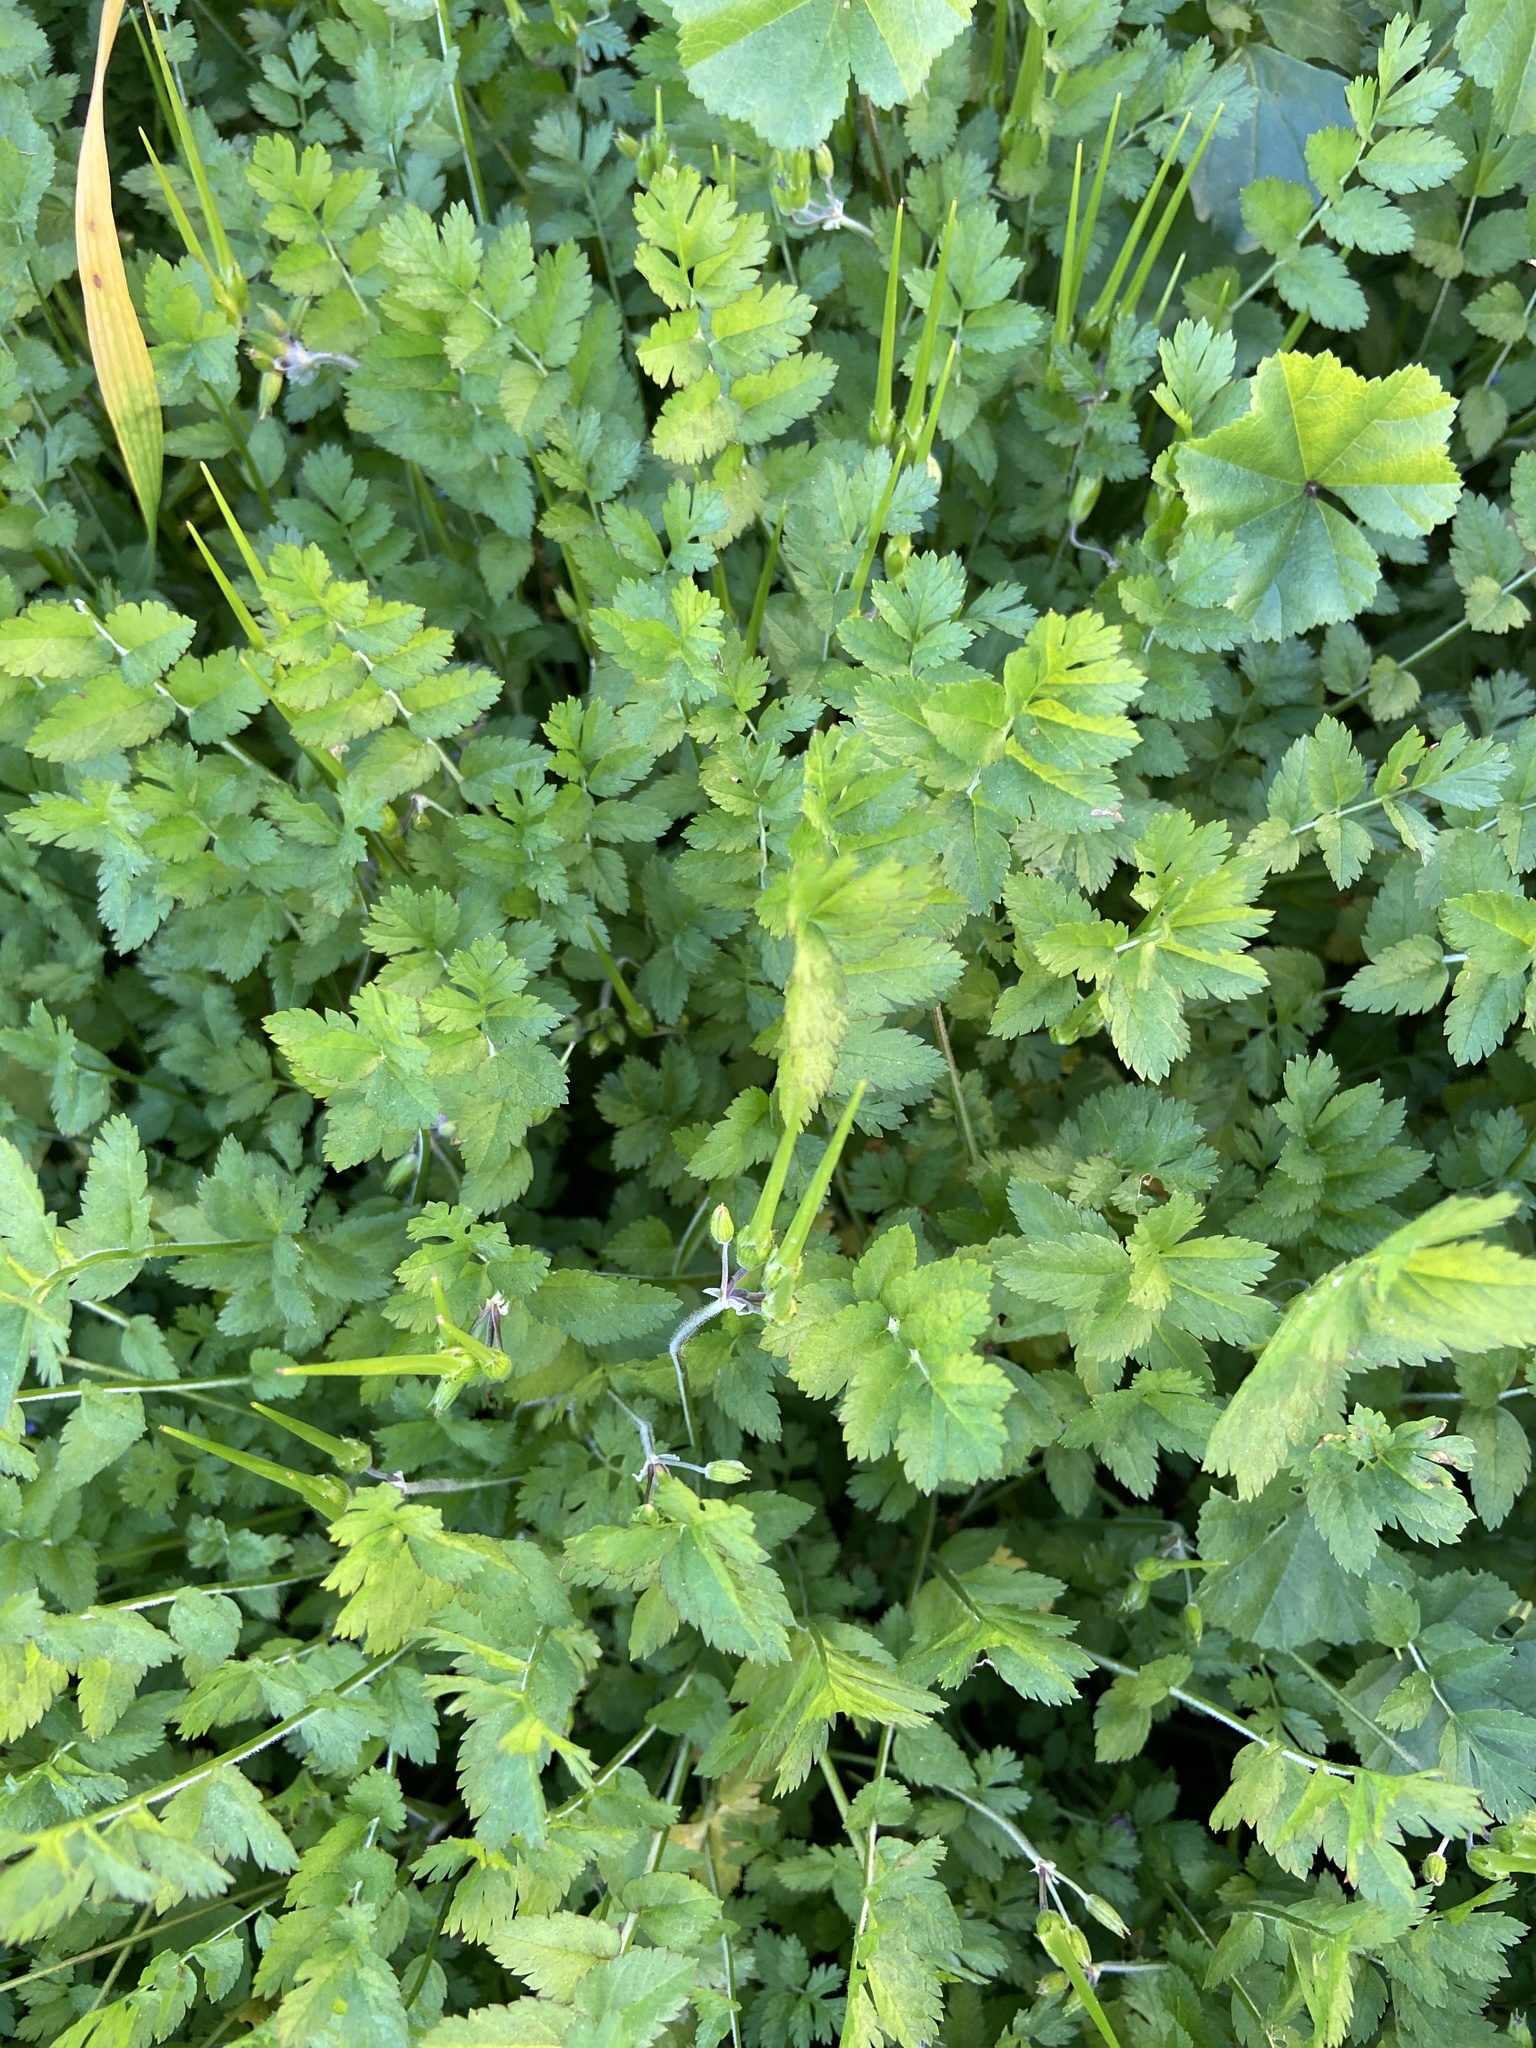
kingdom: Plantae
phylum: Tracheophyta
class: Magnoliopsida
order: Geraniales
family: Geraniaceae
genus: Erodium
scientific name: Erodium moschatum
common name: Musk stork's-bill
